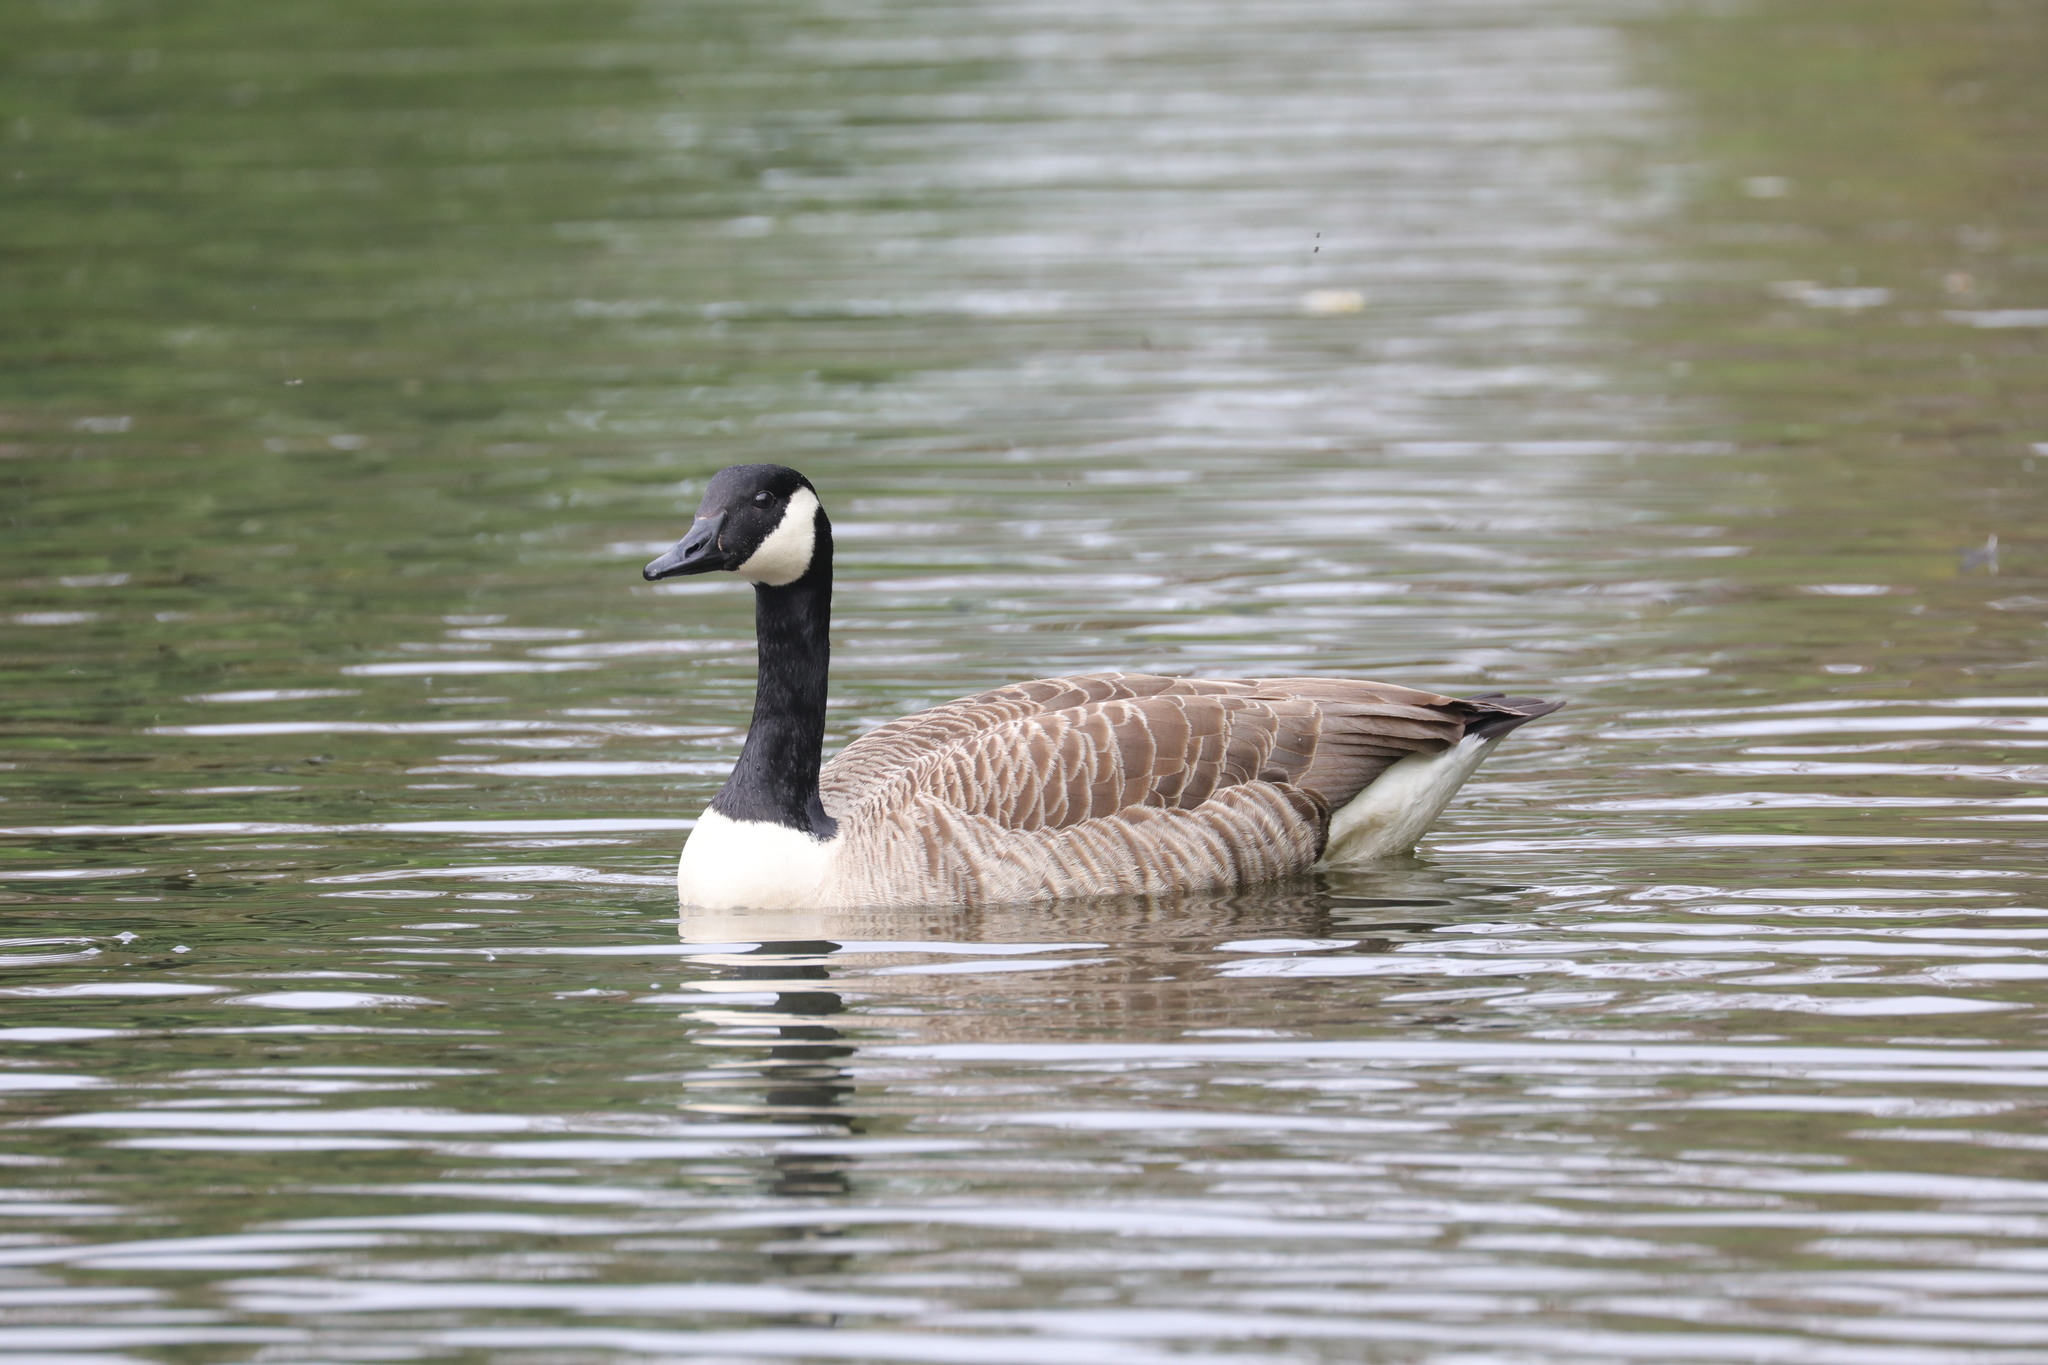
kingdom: Animalia
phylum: Chordata
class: Aves
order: Anseriformes
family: Anatidae
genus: Branta
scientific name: Branta canadensis
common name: Canada goose
